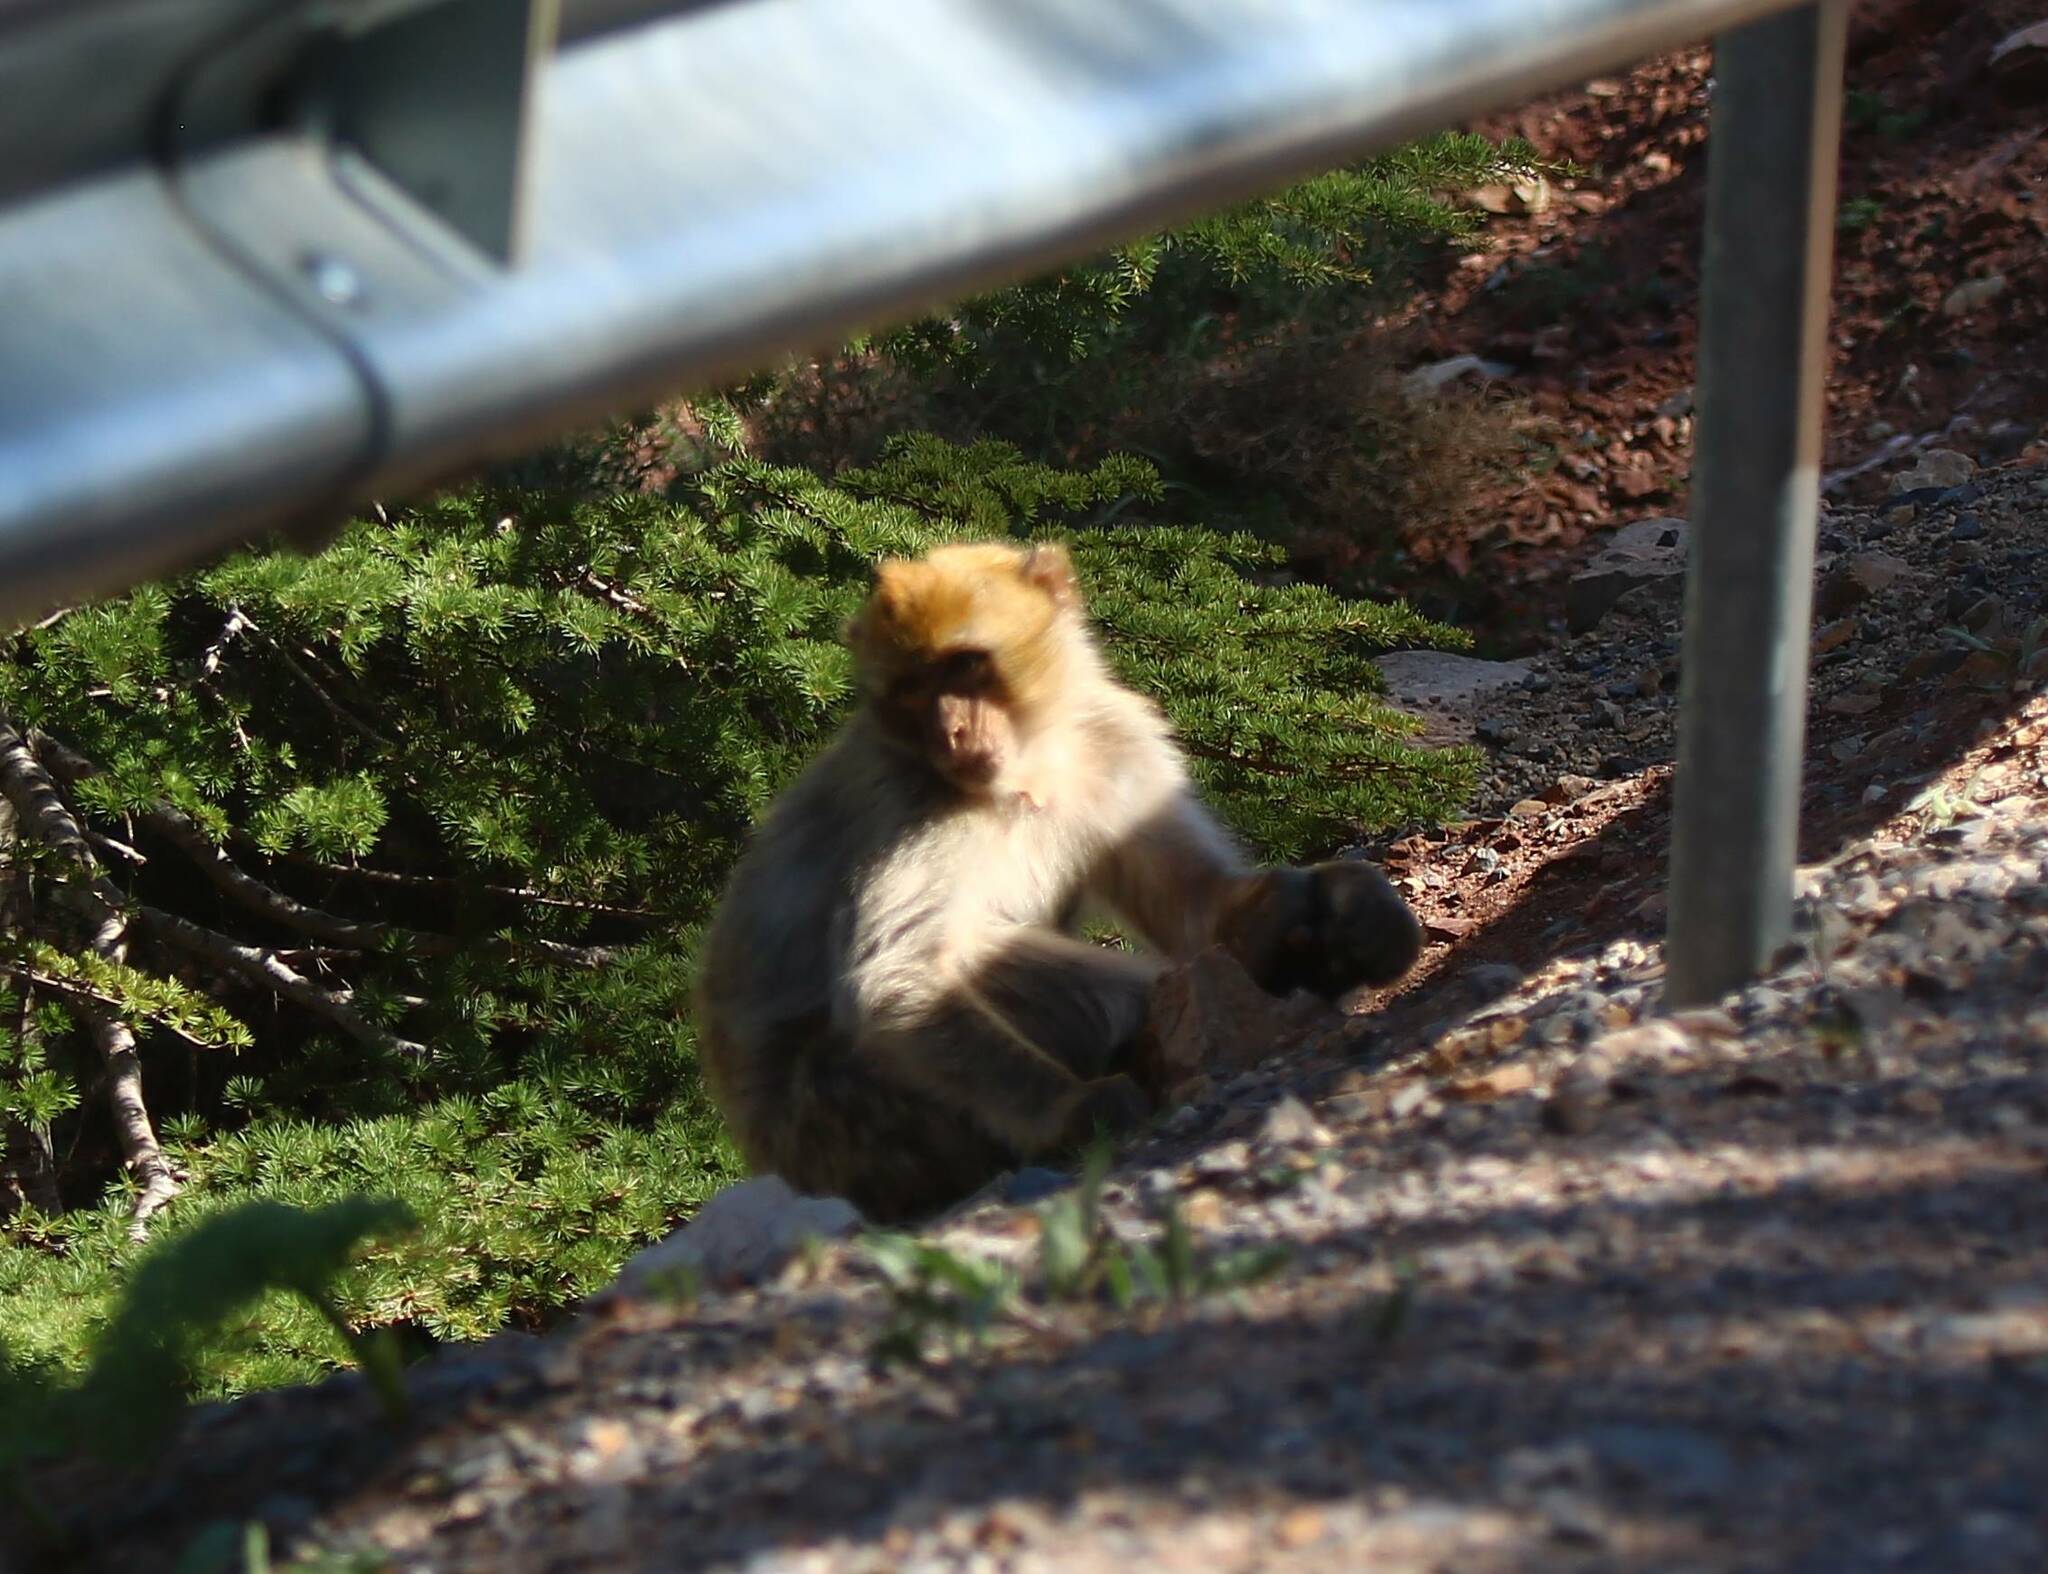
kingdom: Animalia
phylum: Chordata
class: Mammalia
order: Primates
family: Cercopithecidae
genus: Macaca
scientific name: Macaca sylvanus
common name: Barbary macaque
